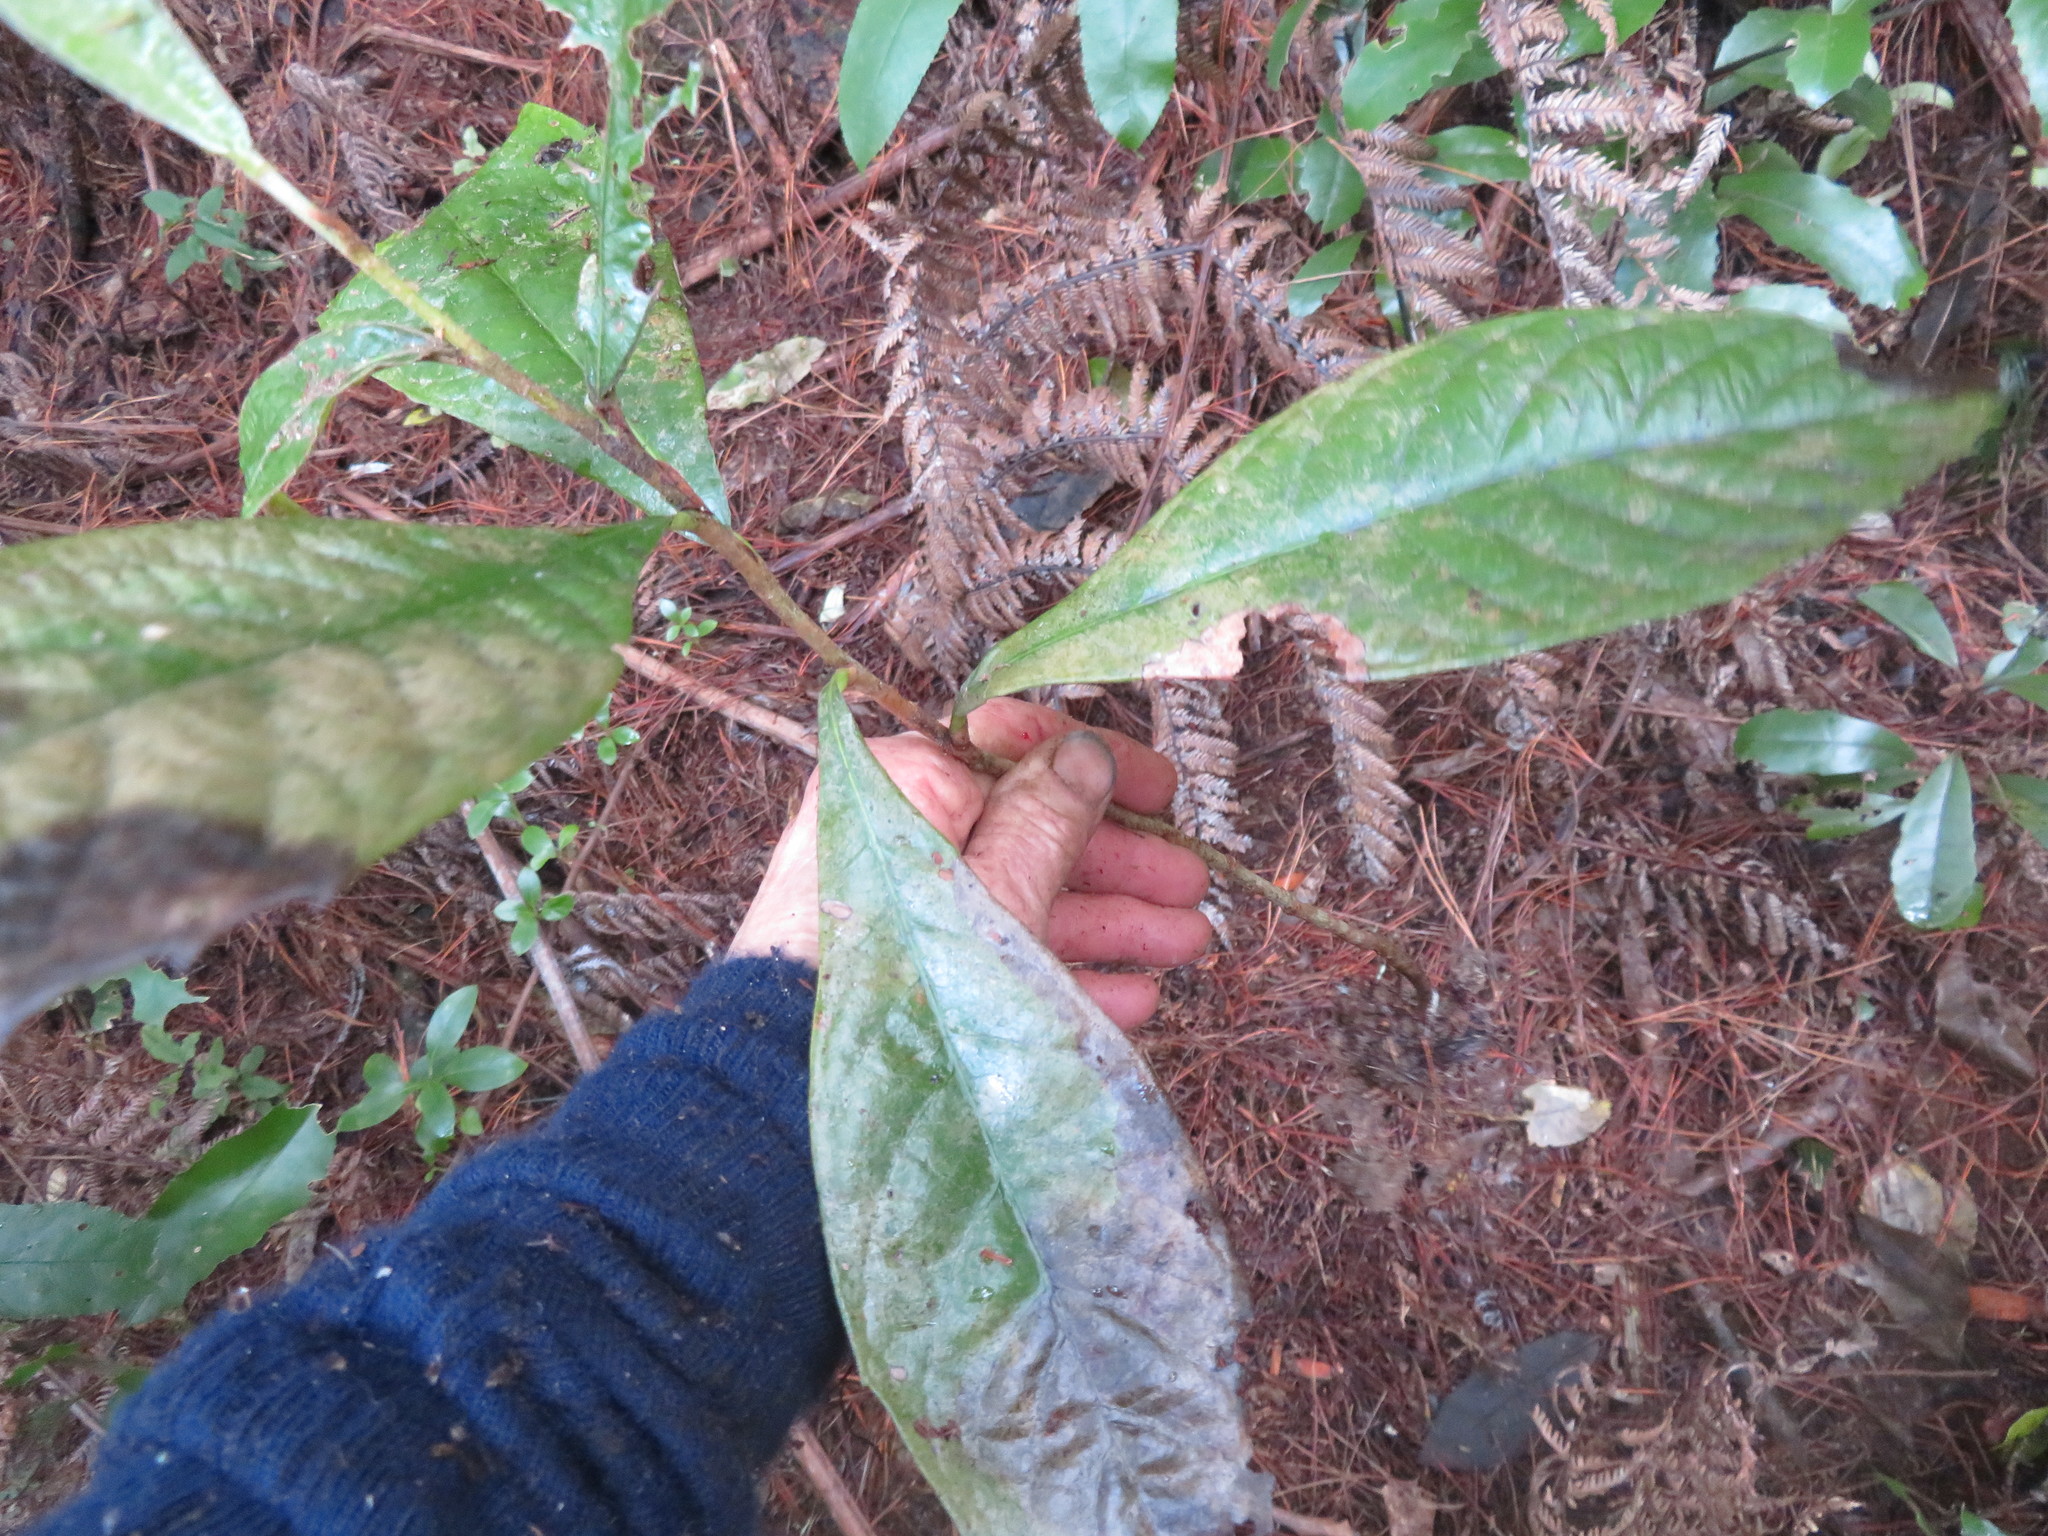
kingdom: Plantae
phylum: Tracheophyta
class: Magnoliopsida
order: Rosales
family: Rosaceae
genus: Rhaphiolepis
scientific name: Rhaphiolepis bibas
